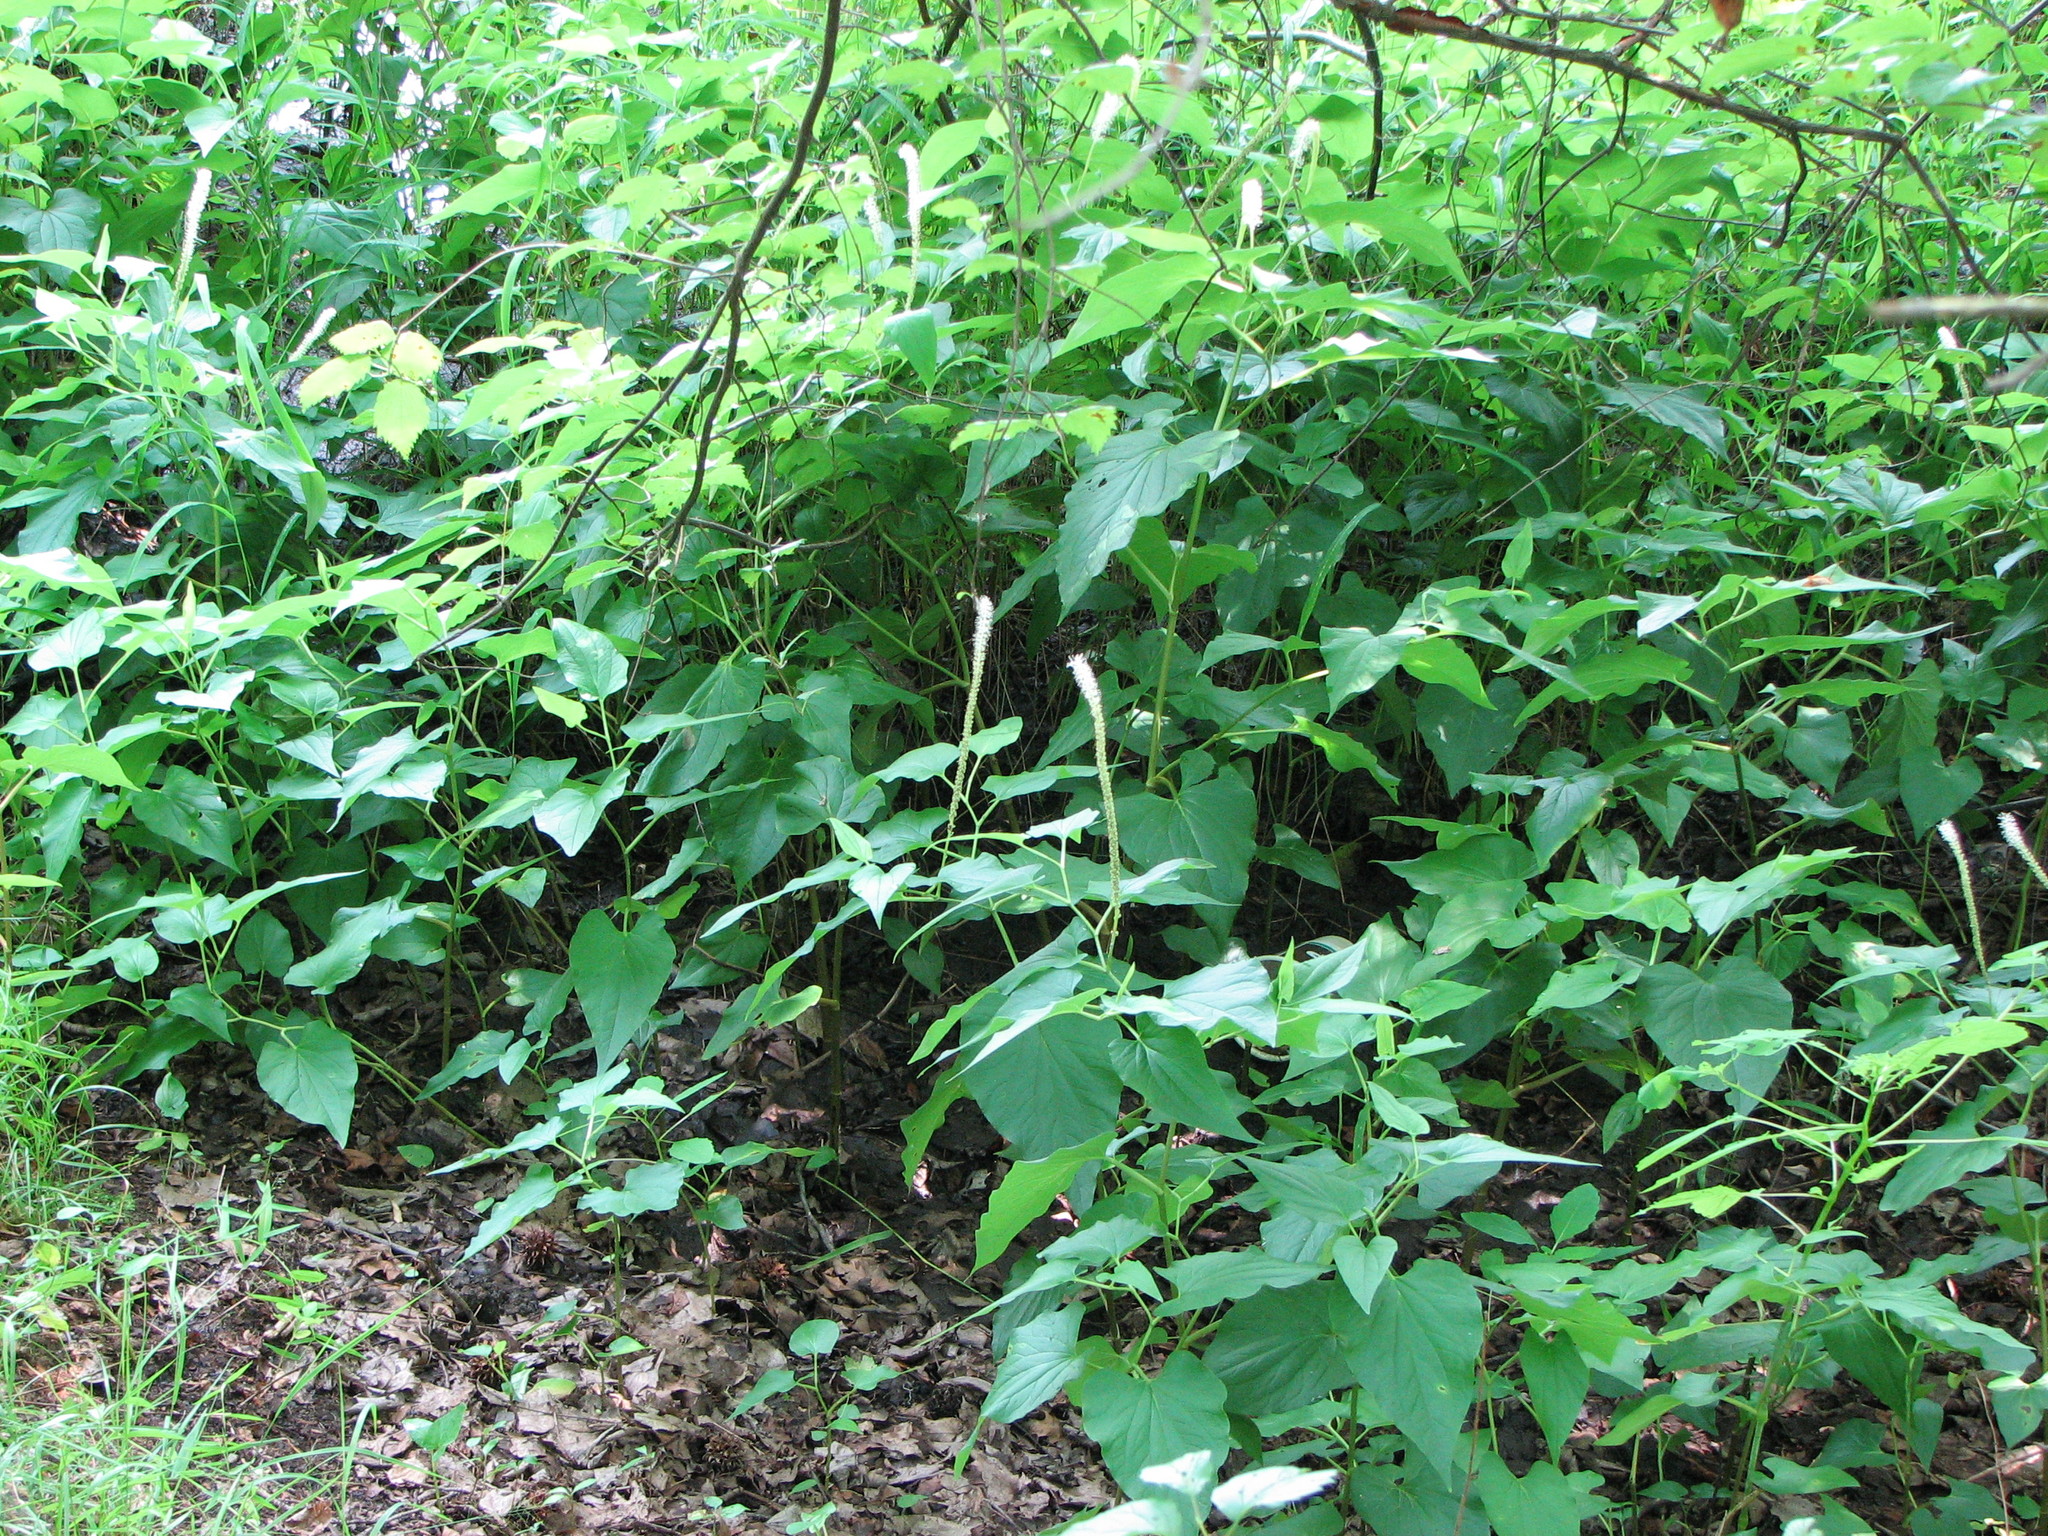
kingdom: Plantae
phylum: Tracheophyta
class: Magnoliopsida
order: Piperales
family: Saururaceae
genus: Saururus
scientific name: Saururus cernuus
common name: Lizard's-tail
